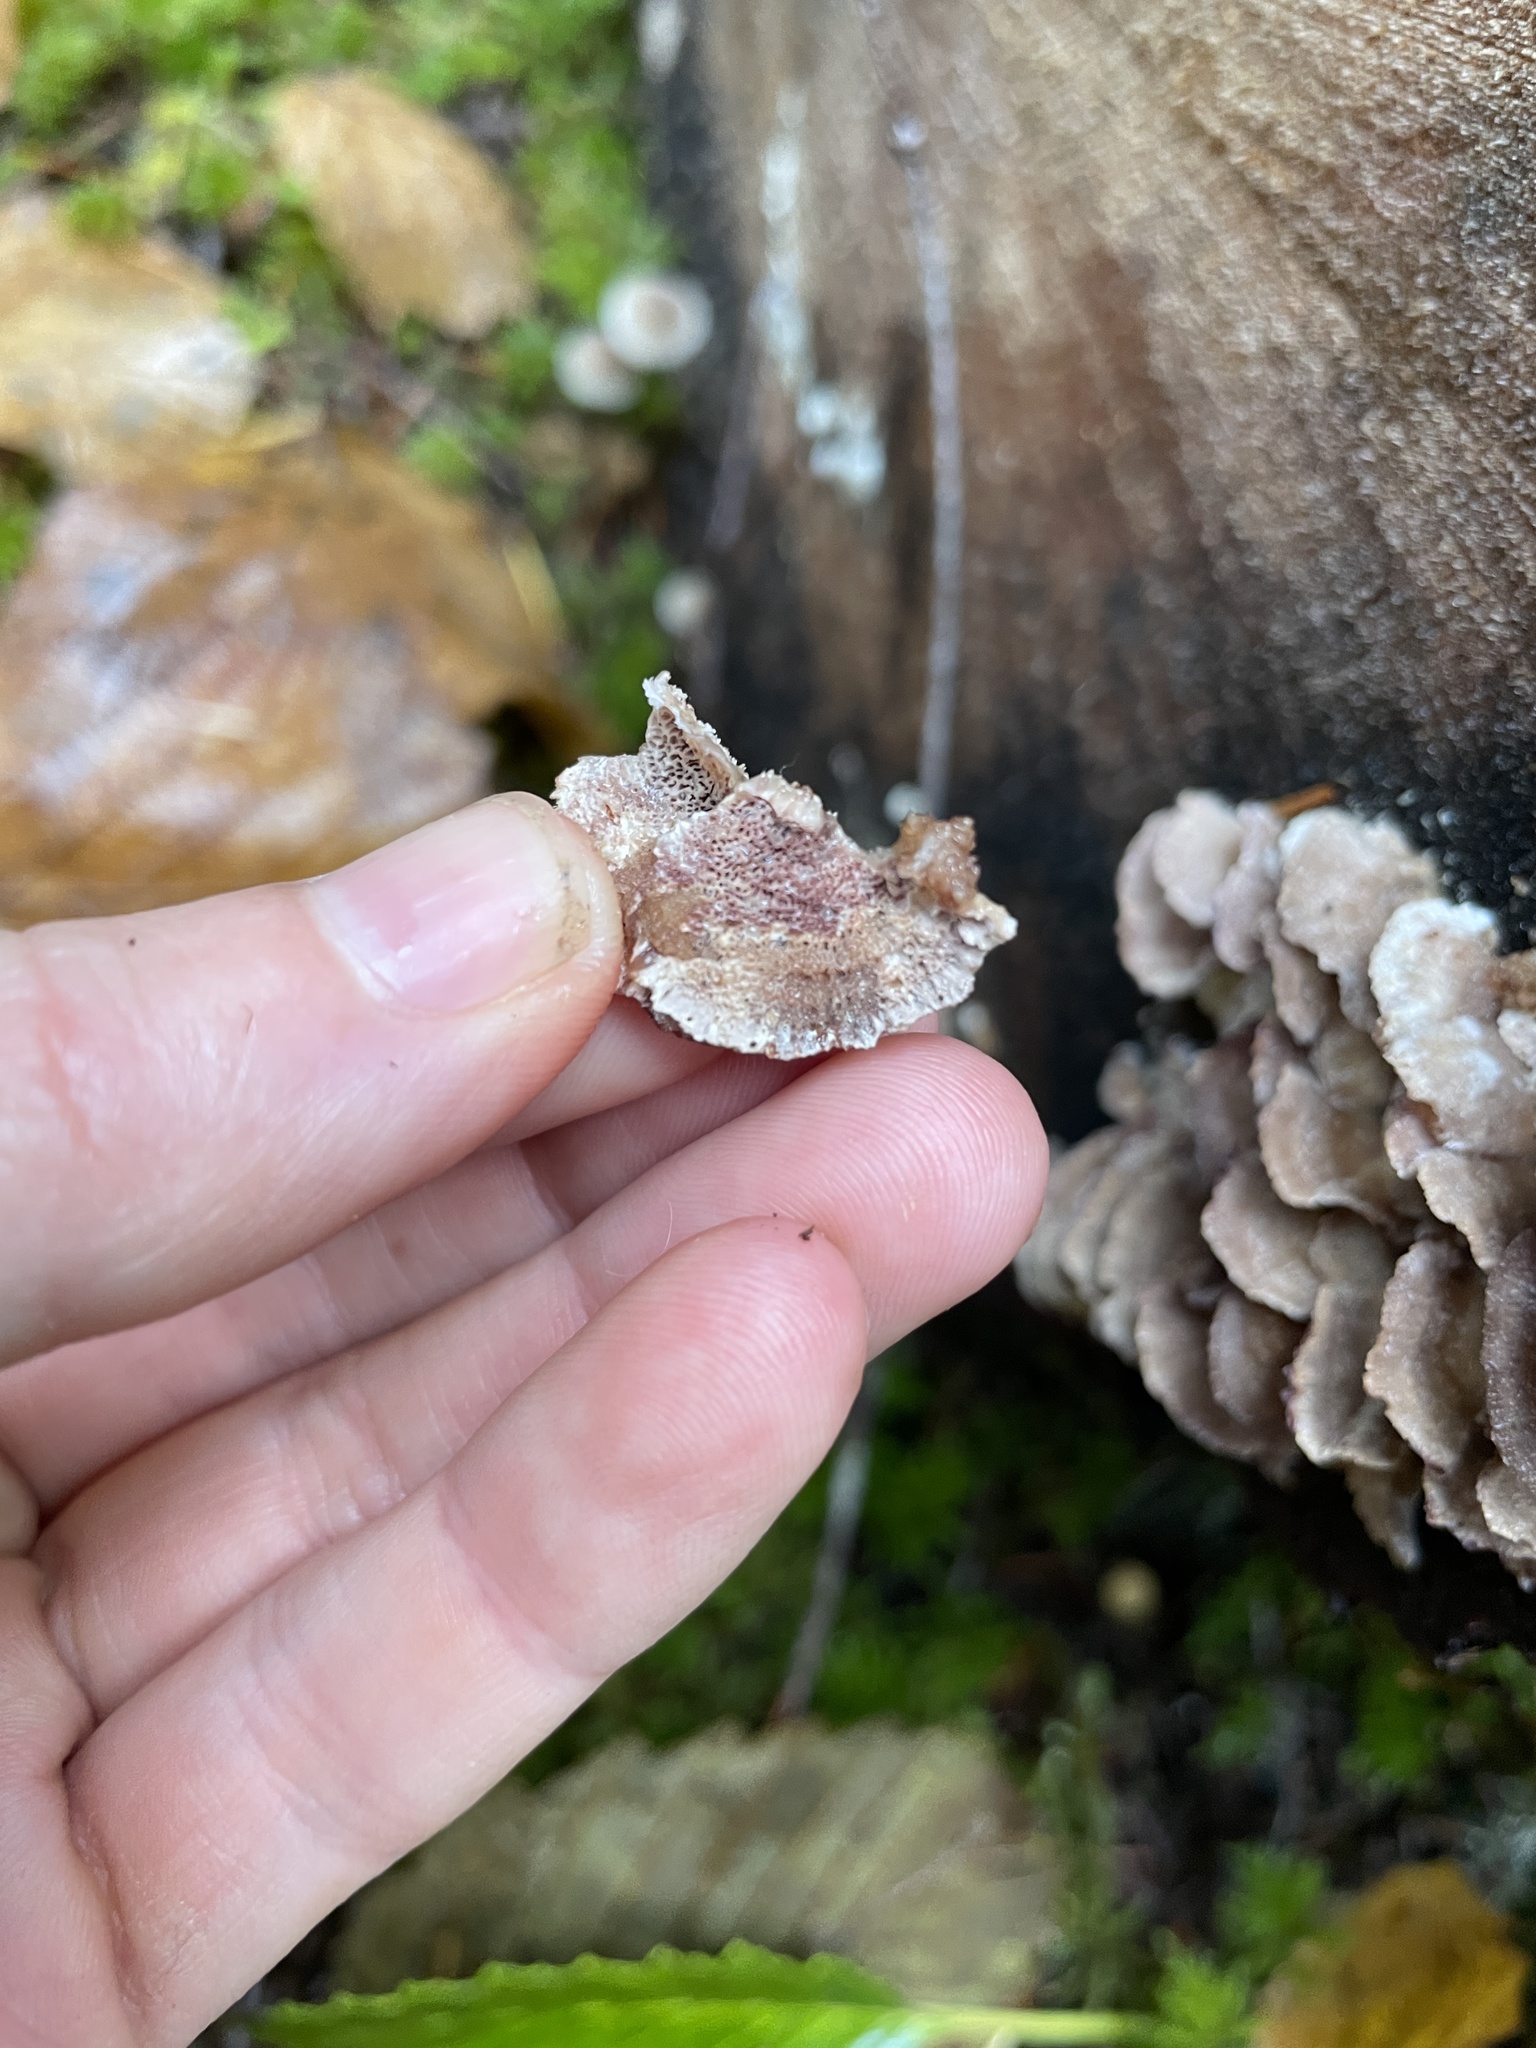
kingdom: Fungi
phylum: Basidiomycota
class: Agaricomycetes
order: Hymenochaetales
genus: Trichaptum
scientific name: Trichaptum abietinum
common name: Purplepore bracket
